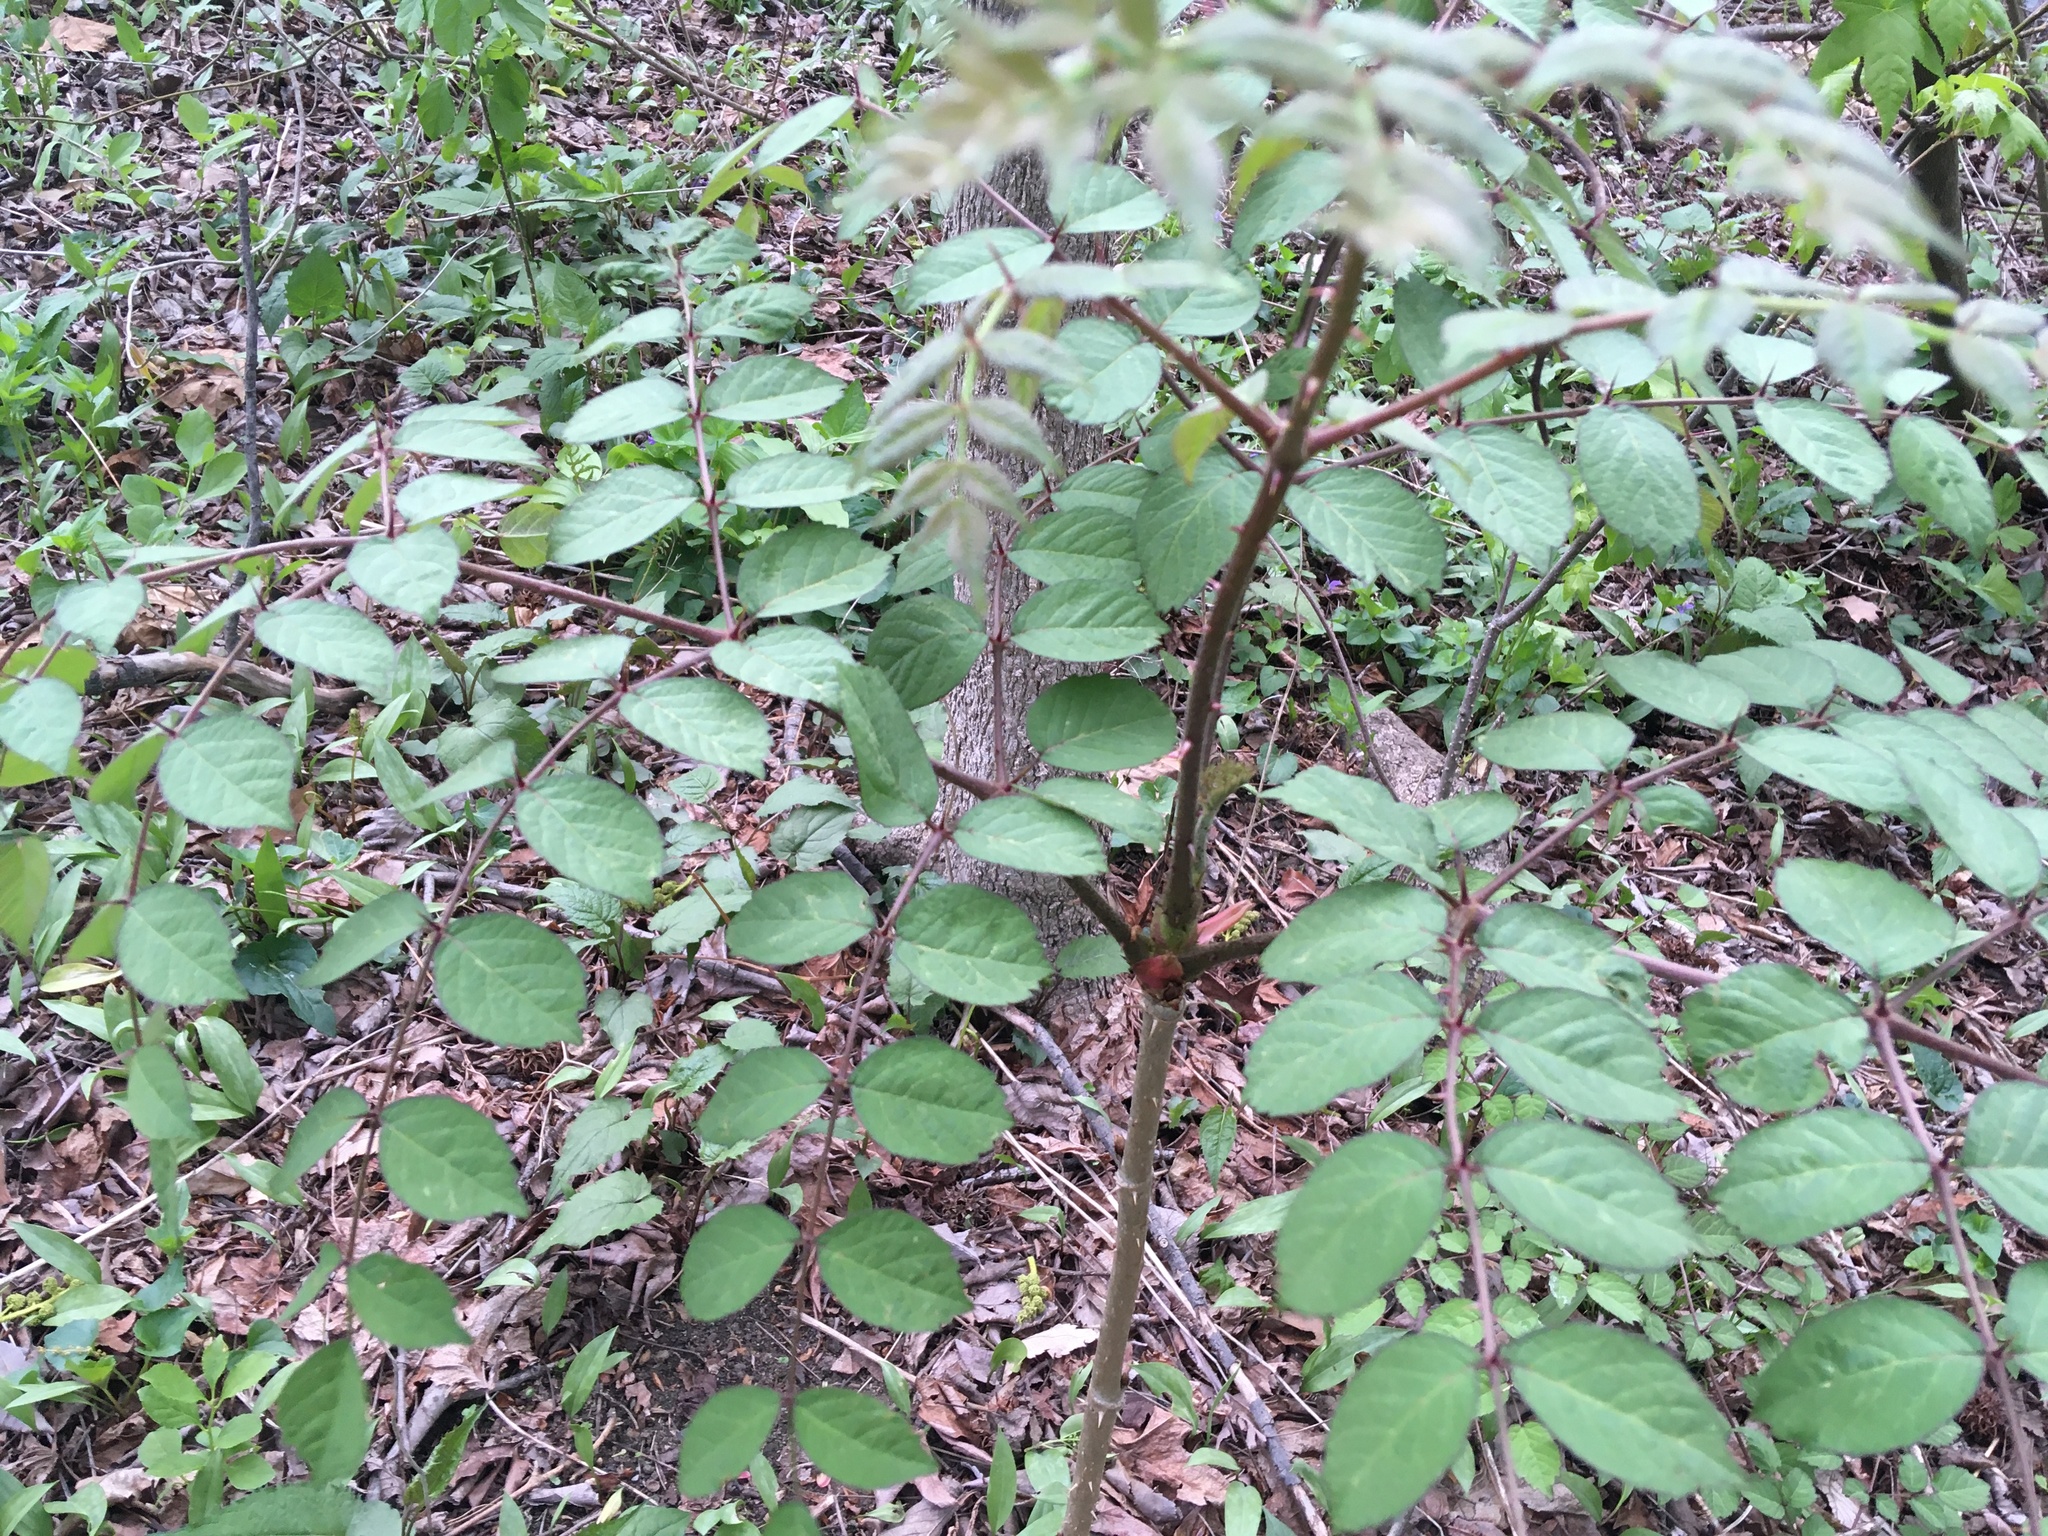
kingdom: Plantae
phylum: Tracheophyta
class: Magnoliopsida
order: Apiales
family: Araliaceae
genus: Aralia
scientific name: Aralia elata
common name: Japanese angelica-tree
